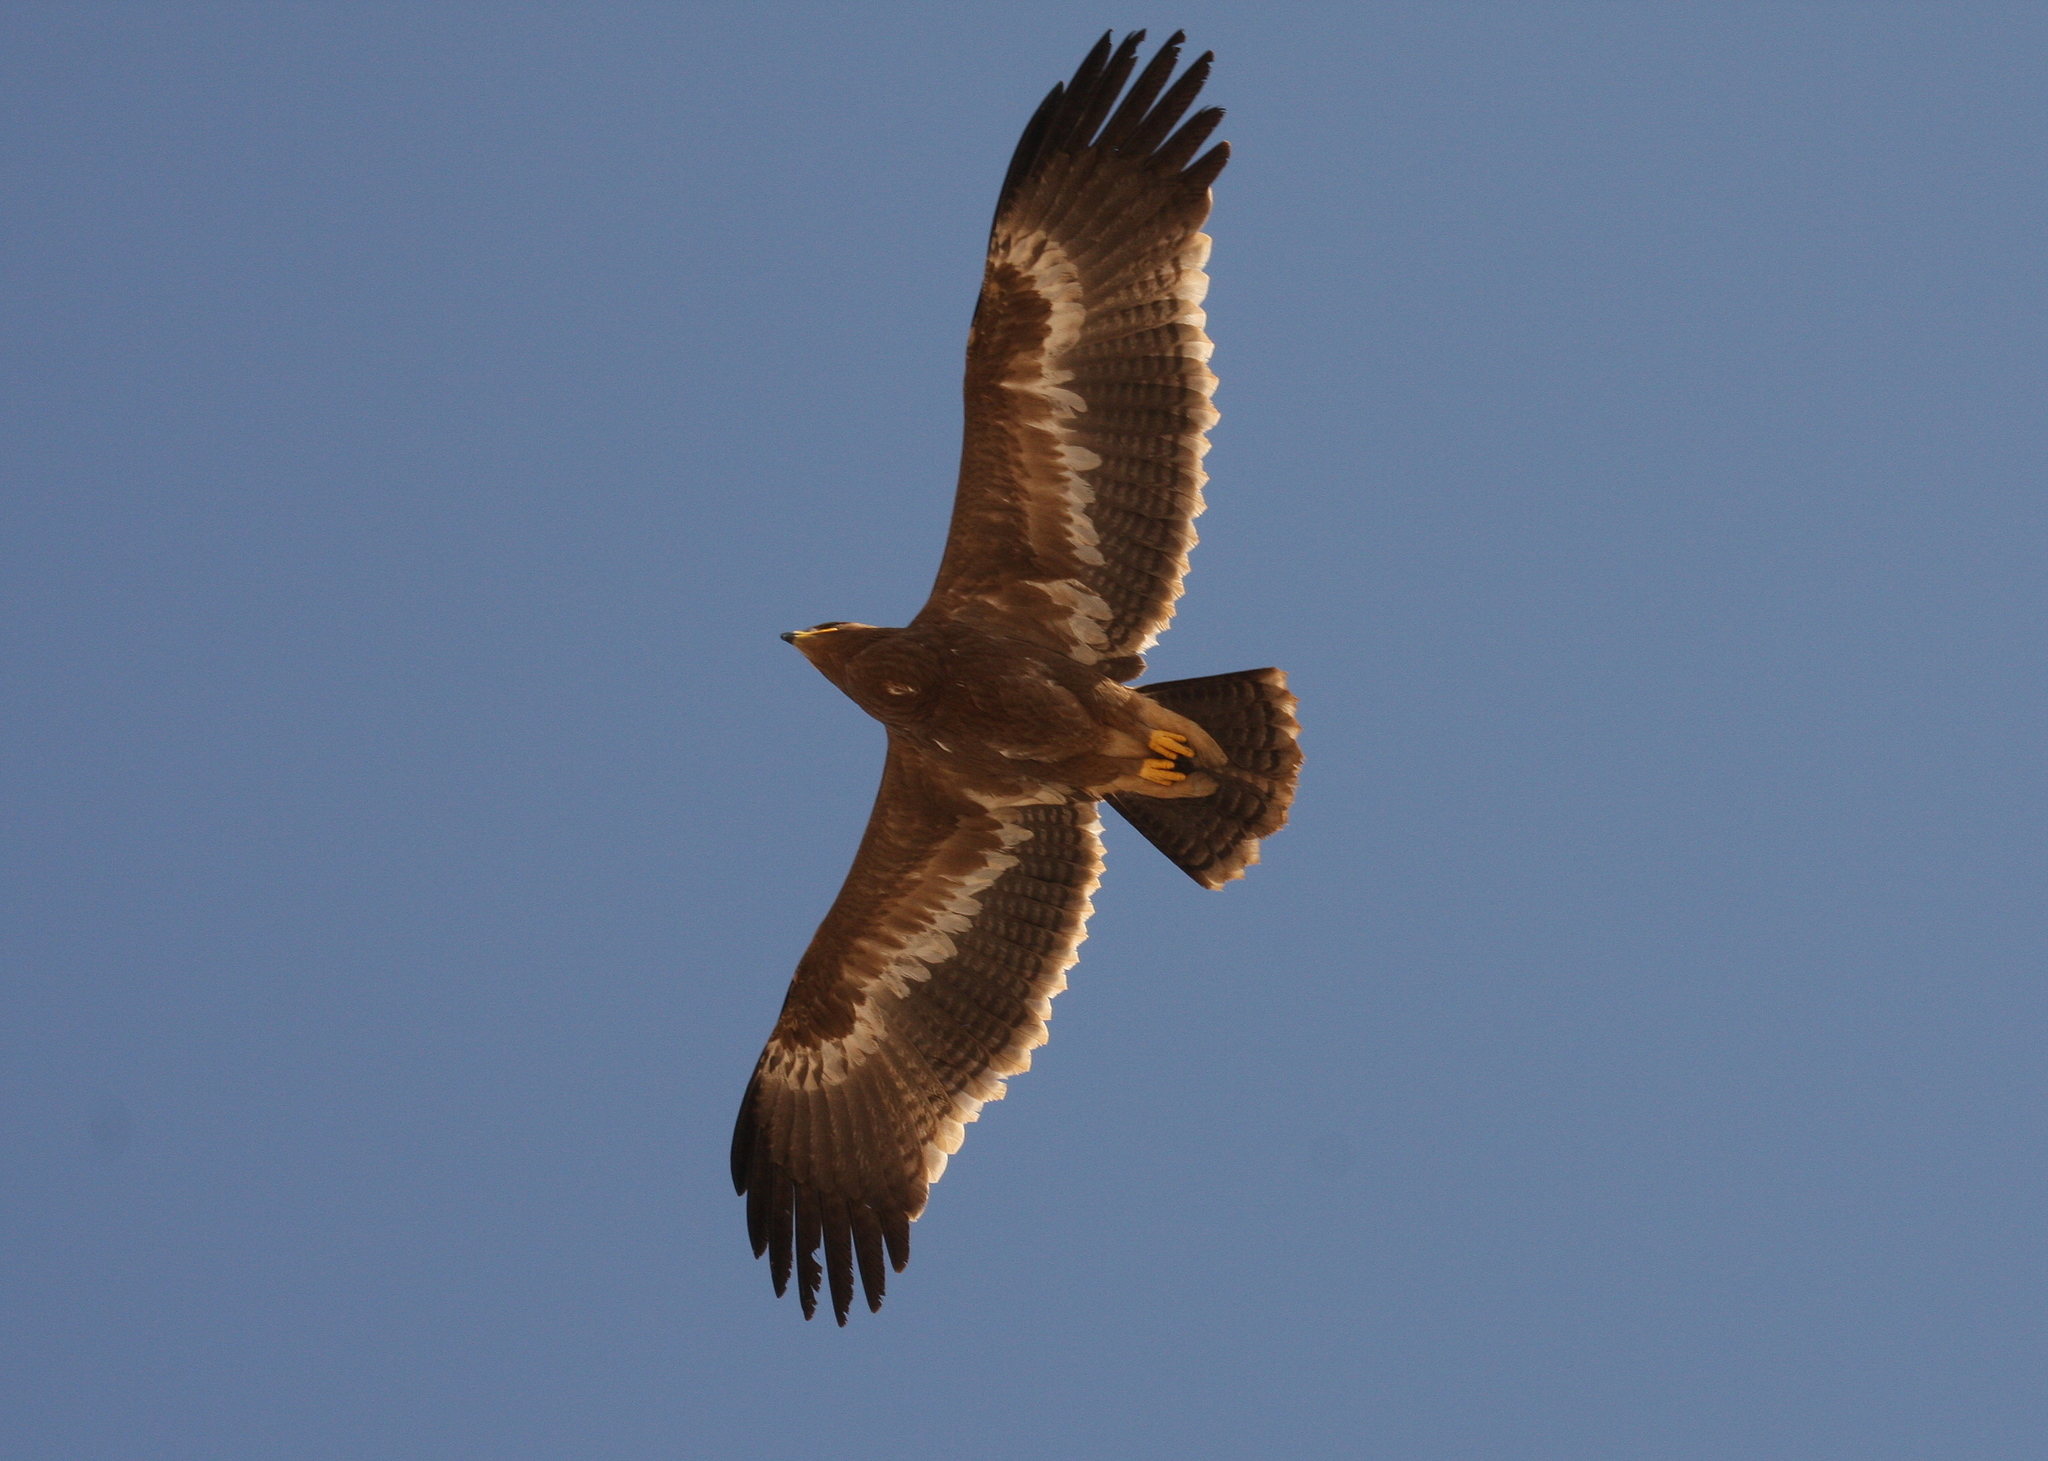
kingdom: Animalia
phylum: Chordata
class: Aves
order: Accipitriformes
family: Accipitridae
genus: Aquila
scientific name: Aquila nipalensis
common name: Steppe eagle
